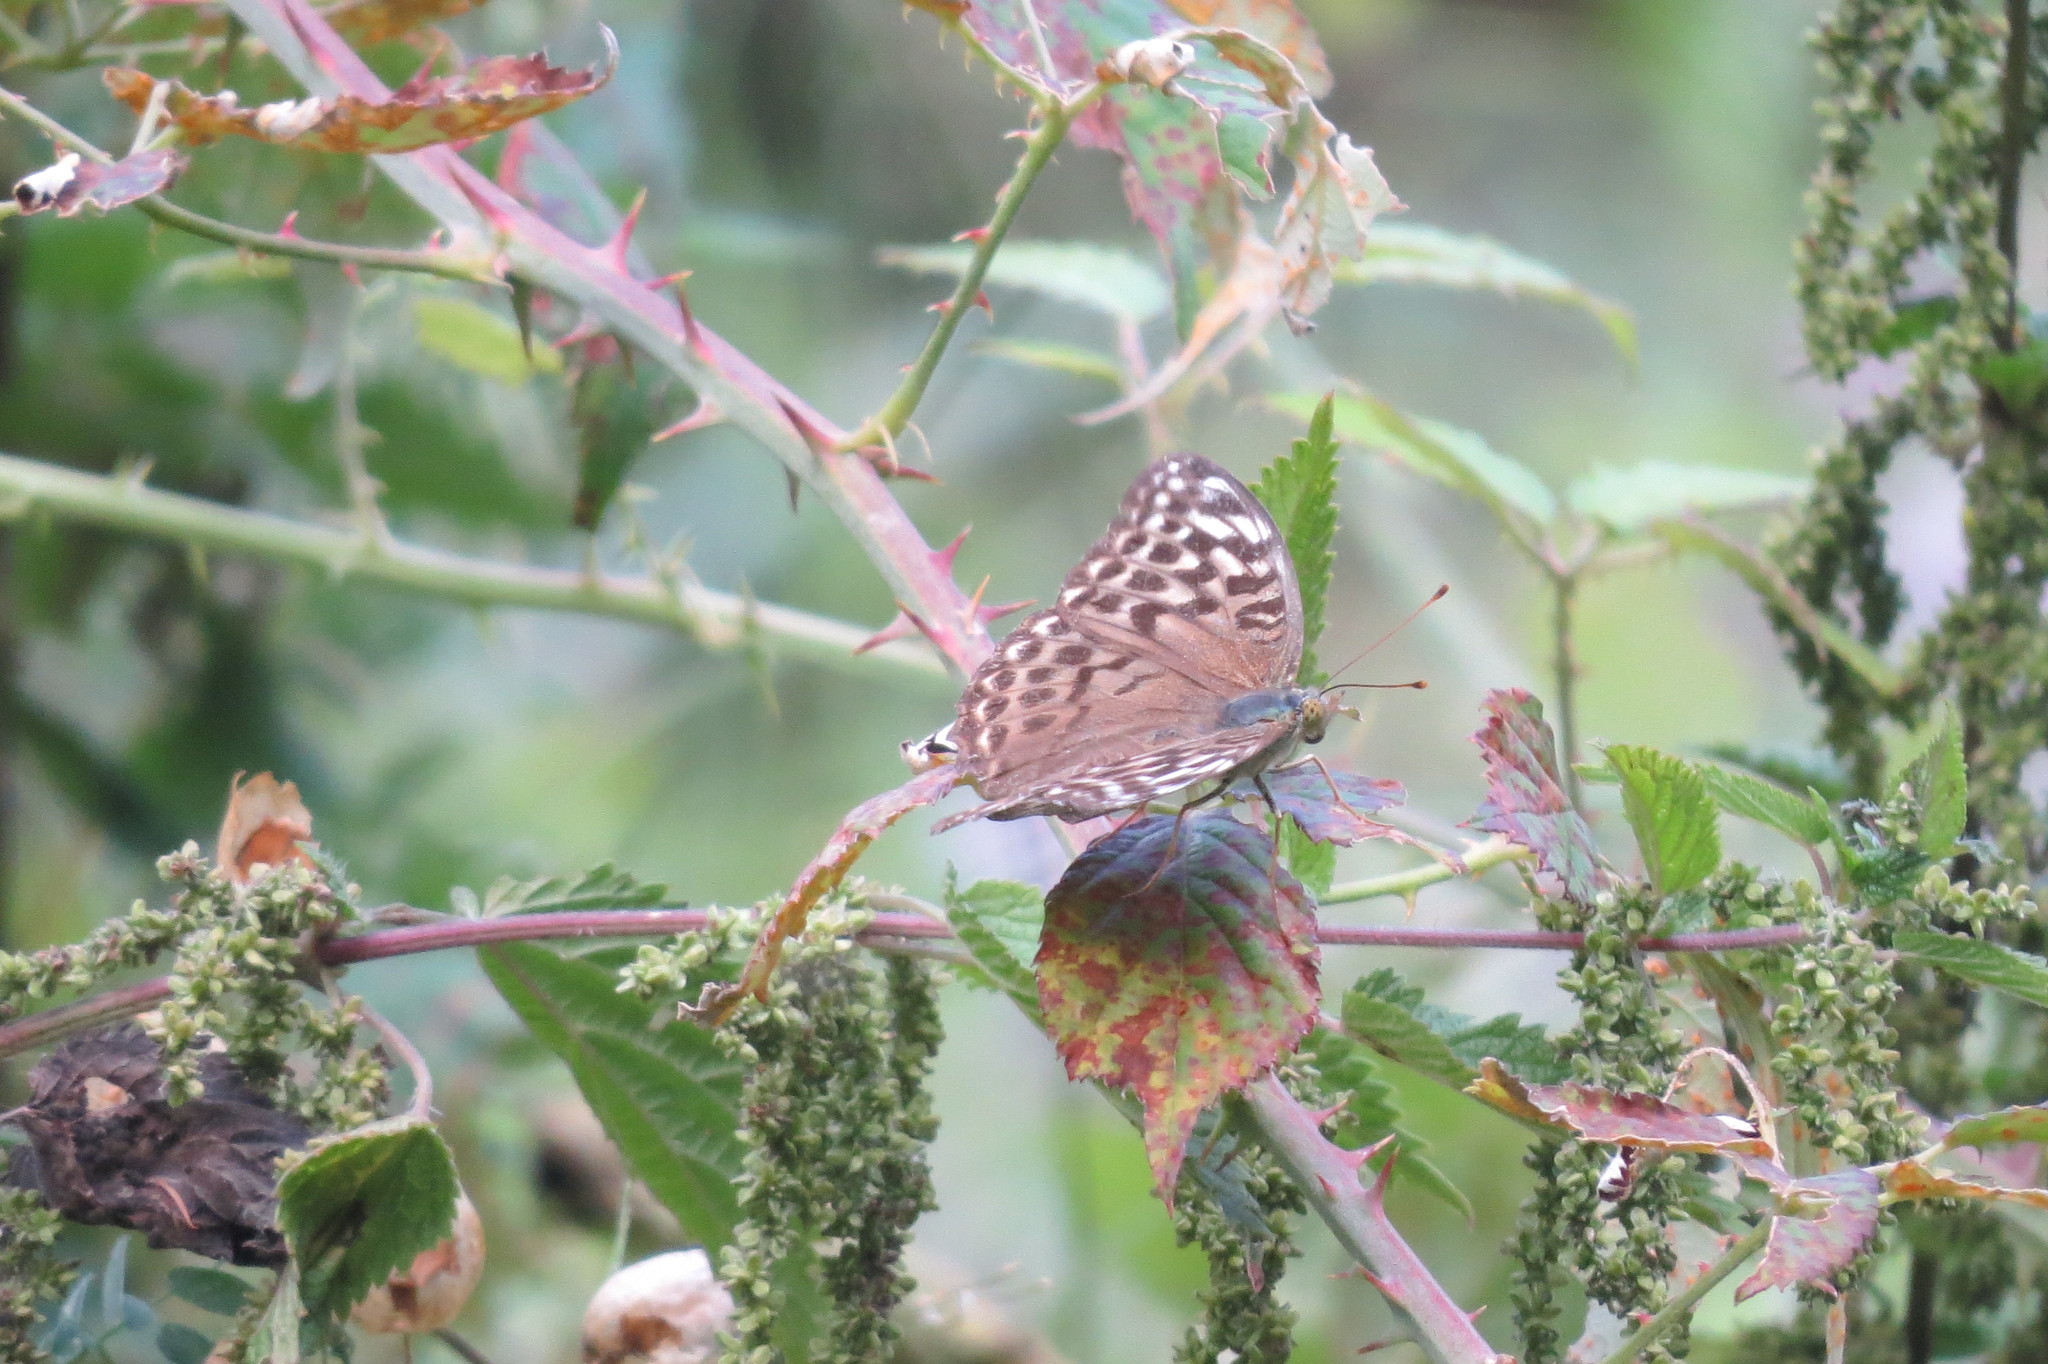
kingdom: Animalia
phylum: Arthropoda
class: Insecta
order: Lepidoptera
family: Nymphalidae
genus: Argynnis
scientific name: Argynnis paphia
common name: Silver-washed fritillary
